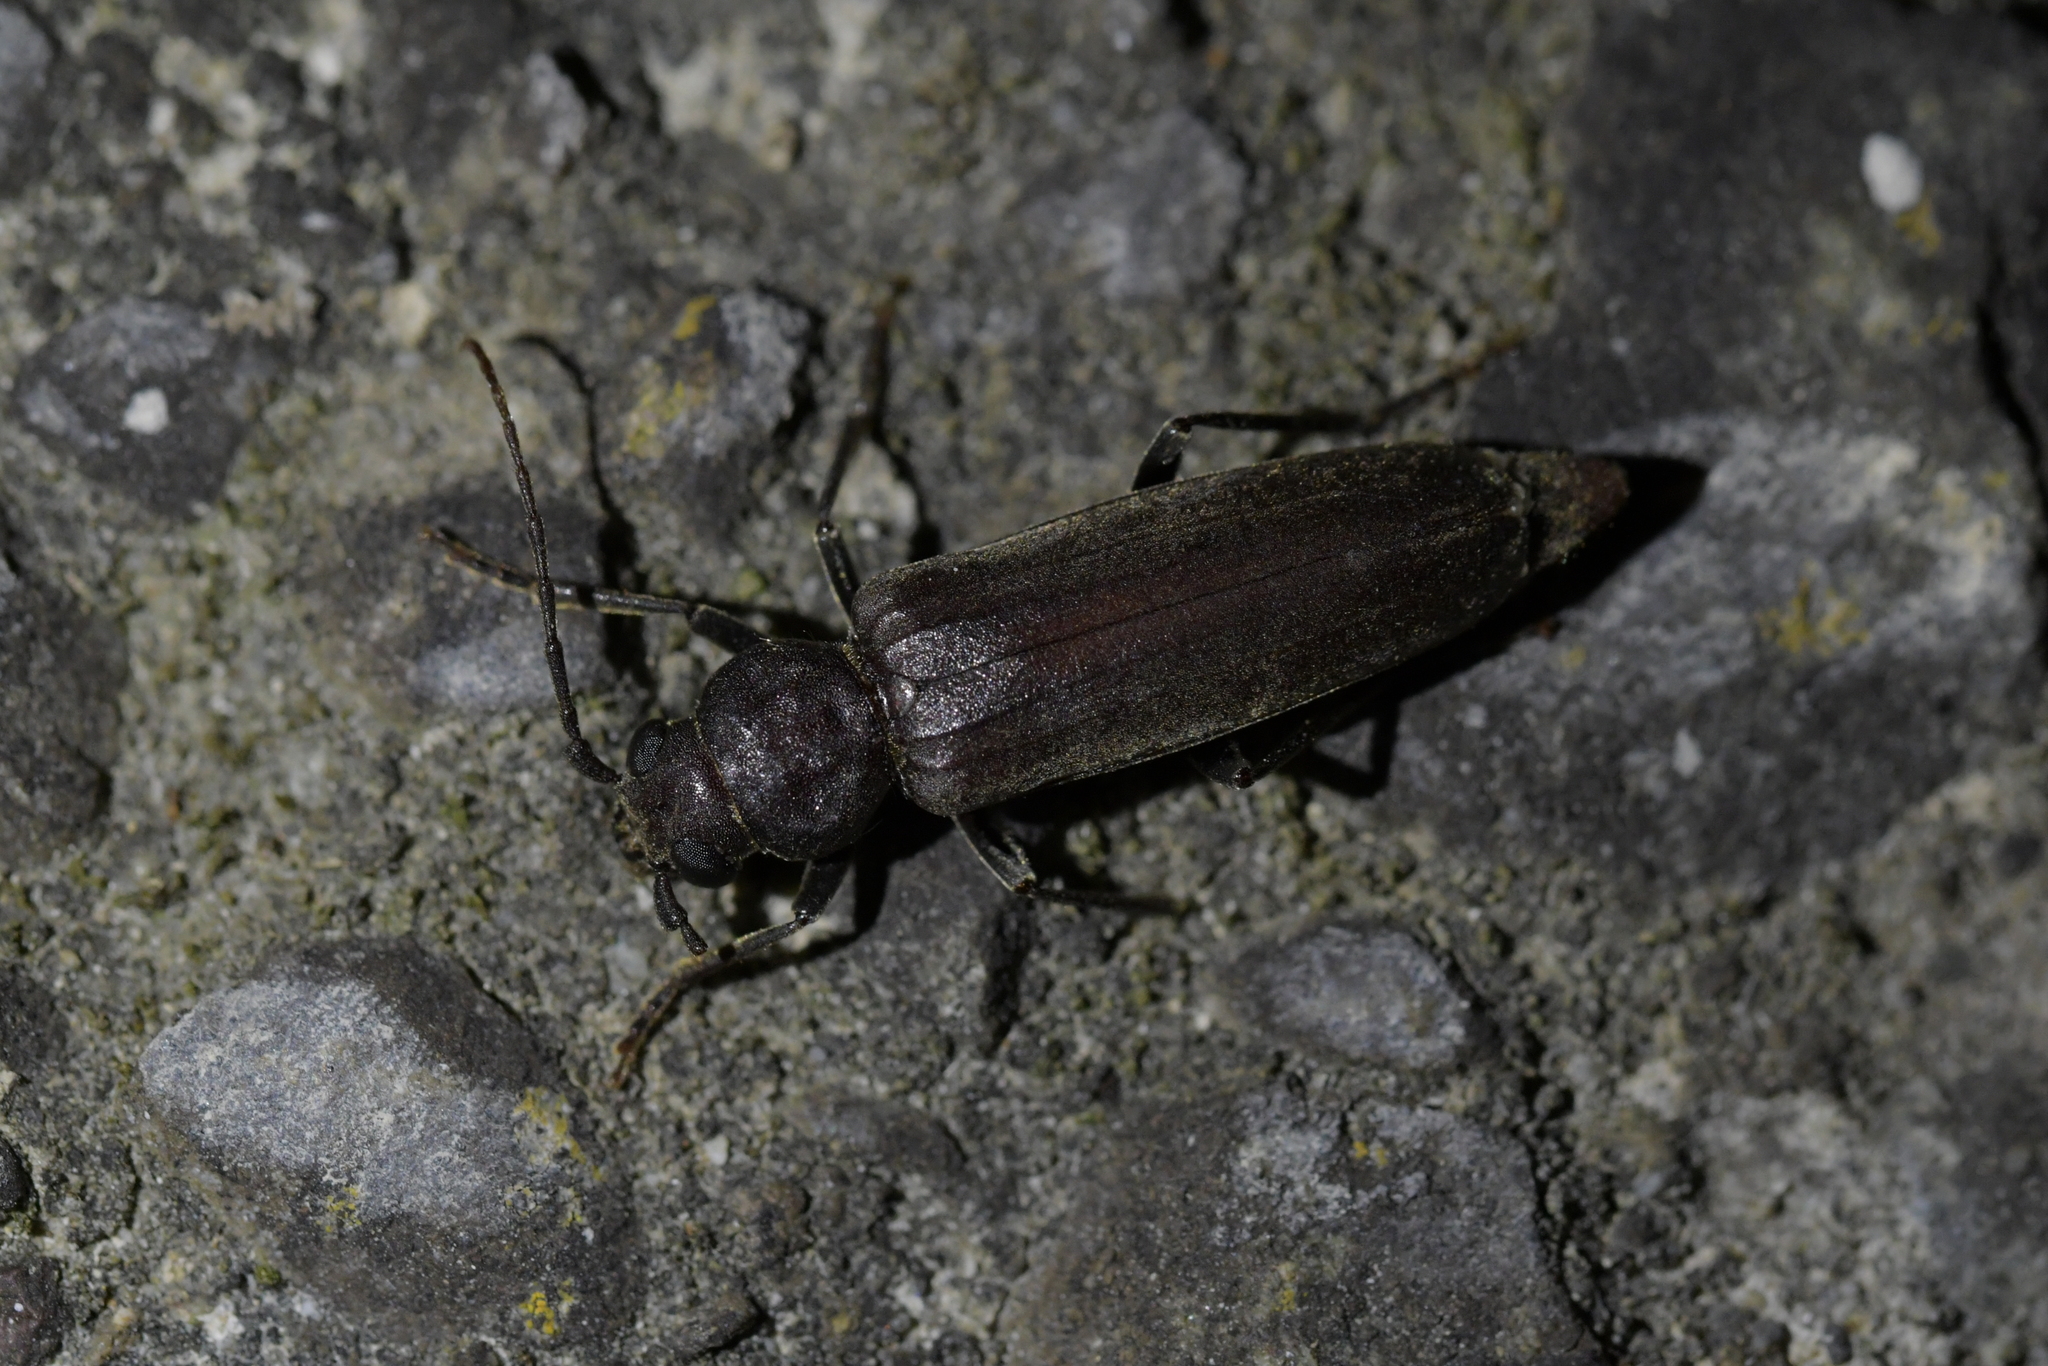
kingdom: Animalia
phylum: Arthropoda
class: Insecta
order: Coleoptera
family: Cerambycidae
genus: Arhopalus
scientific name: Arhopalus ferus
